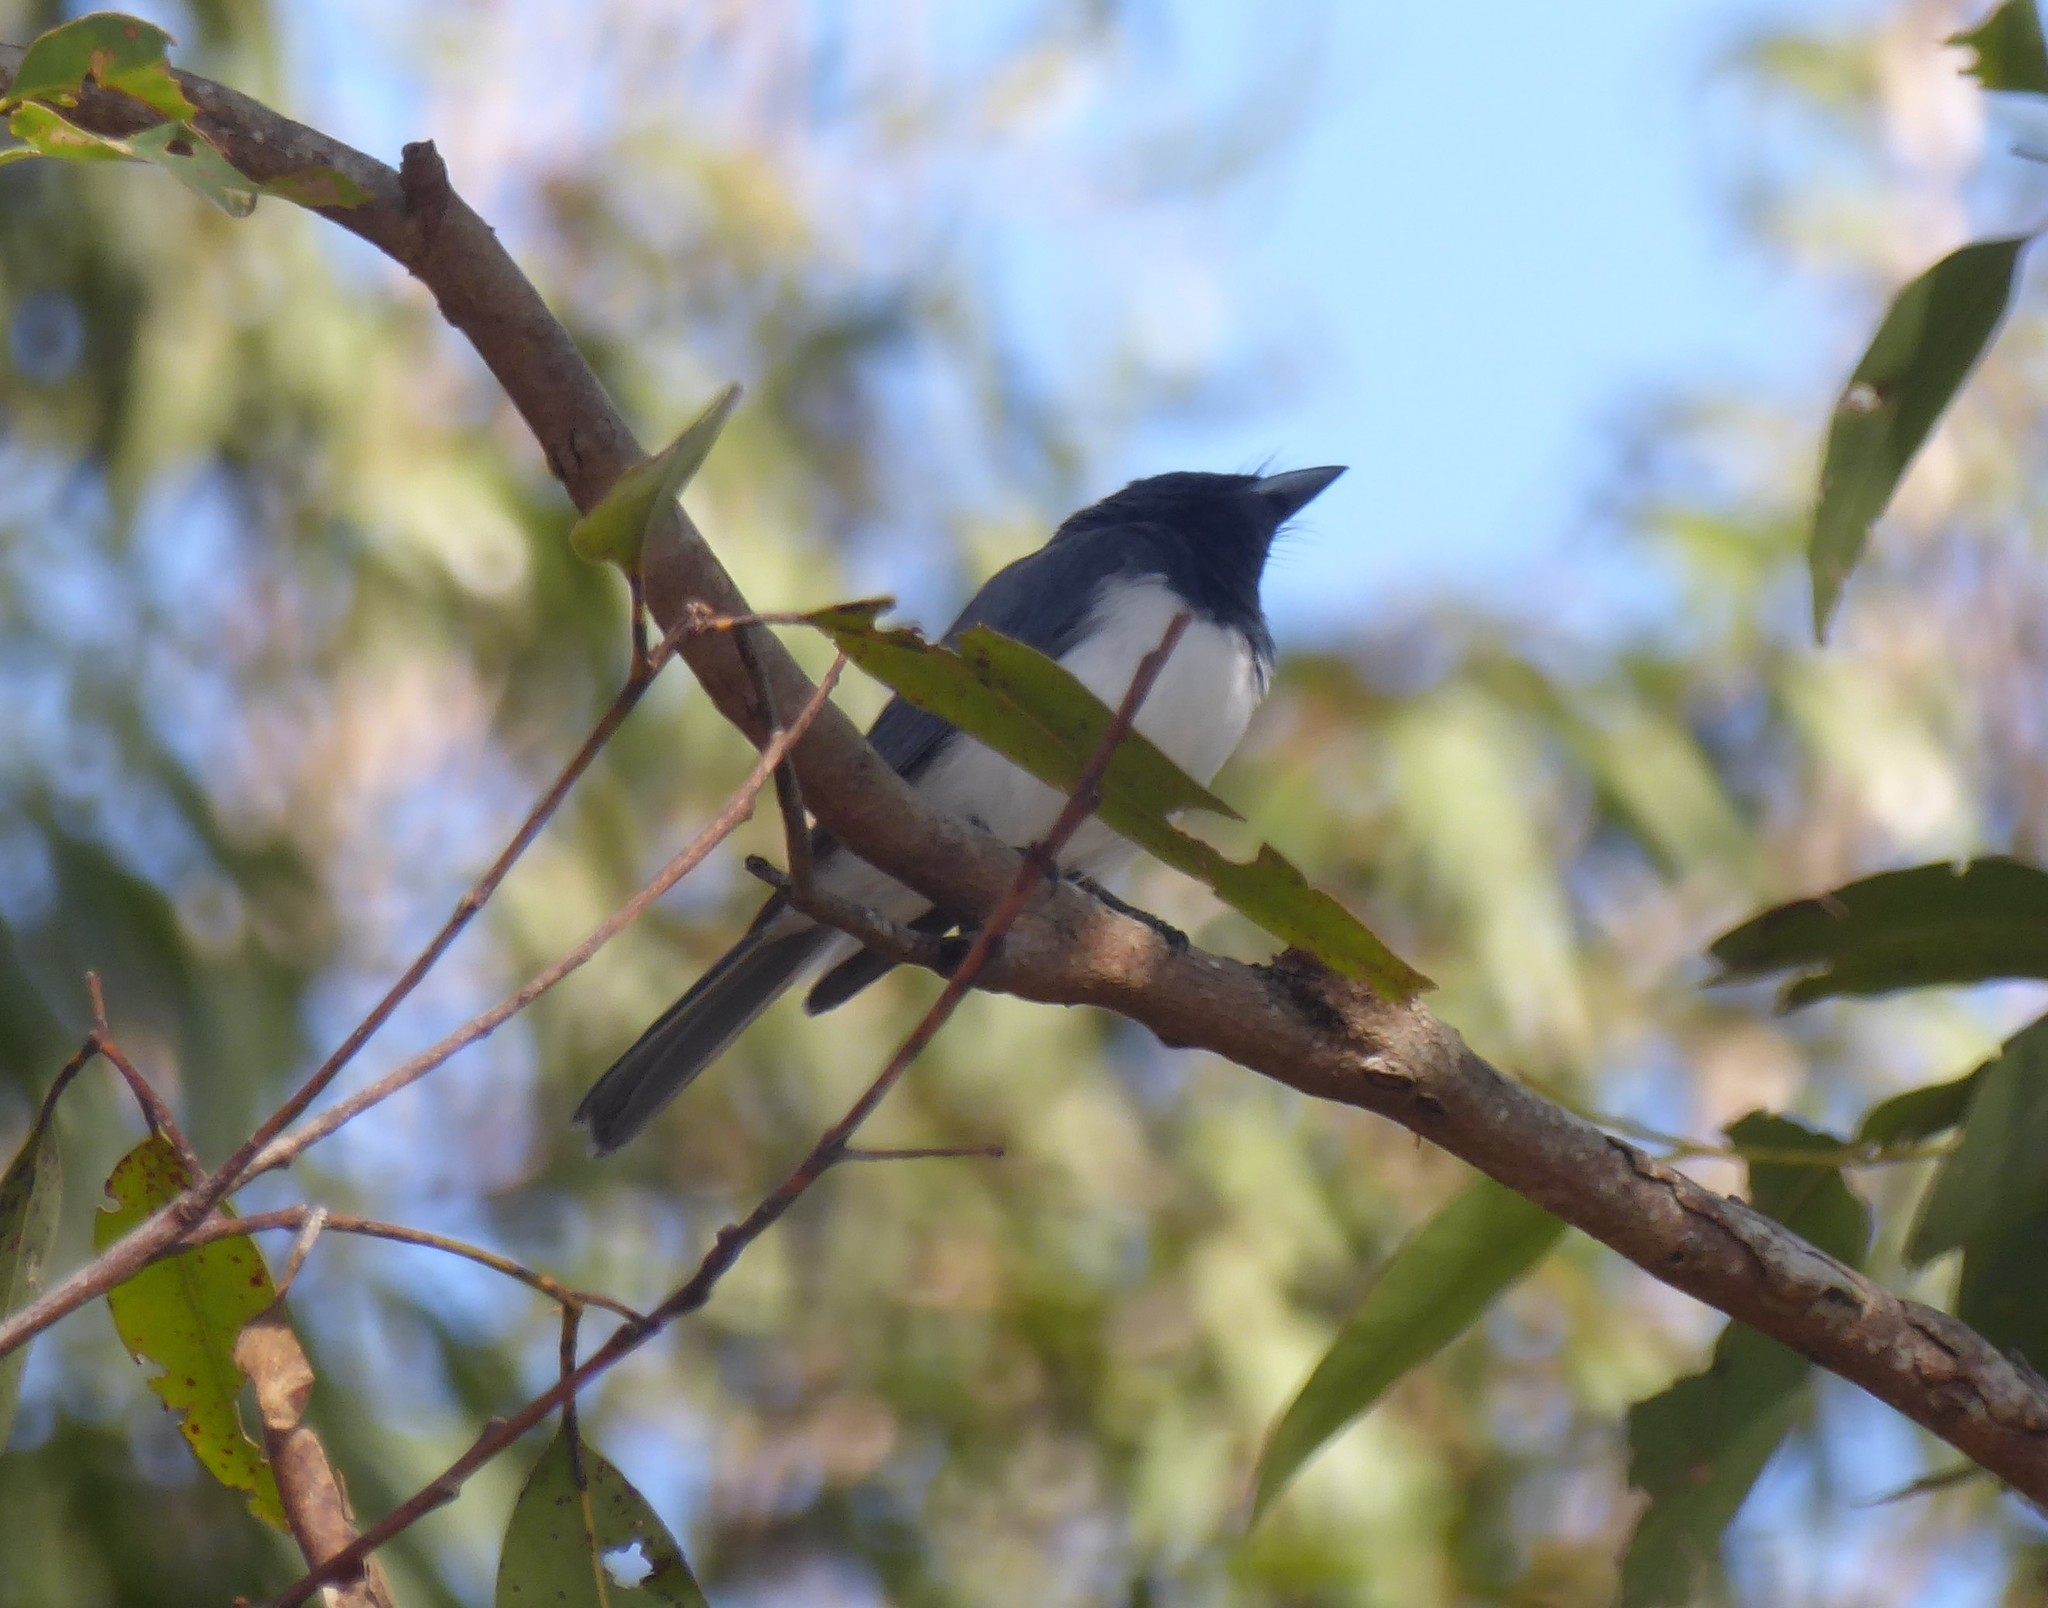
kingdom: Animalia
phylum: Chordata
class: Aves
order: Passeriformes
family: Monarchidae
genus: Myiagra
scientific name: Myiagra rubecula
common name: Leaden flycatcher
